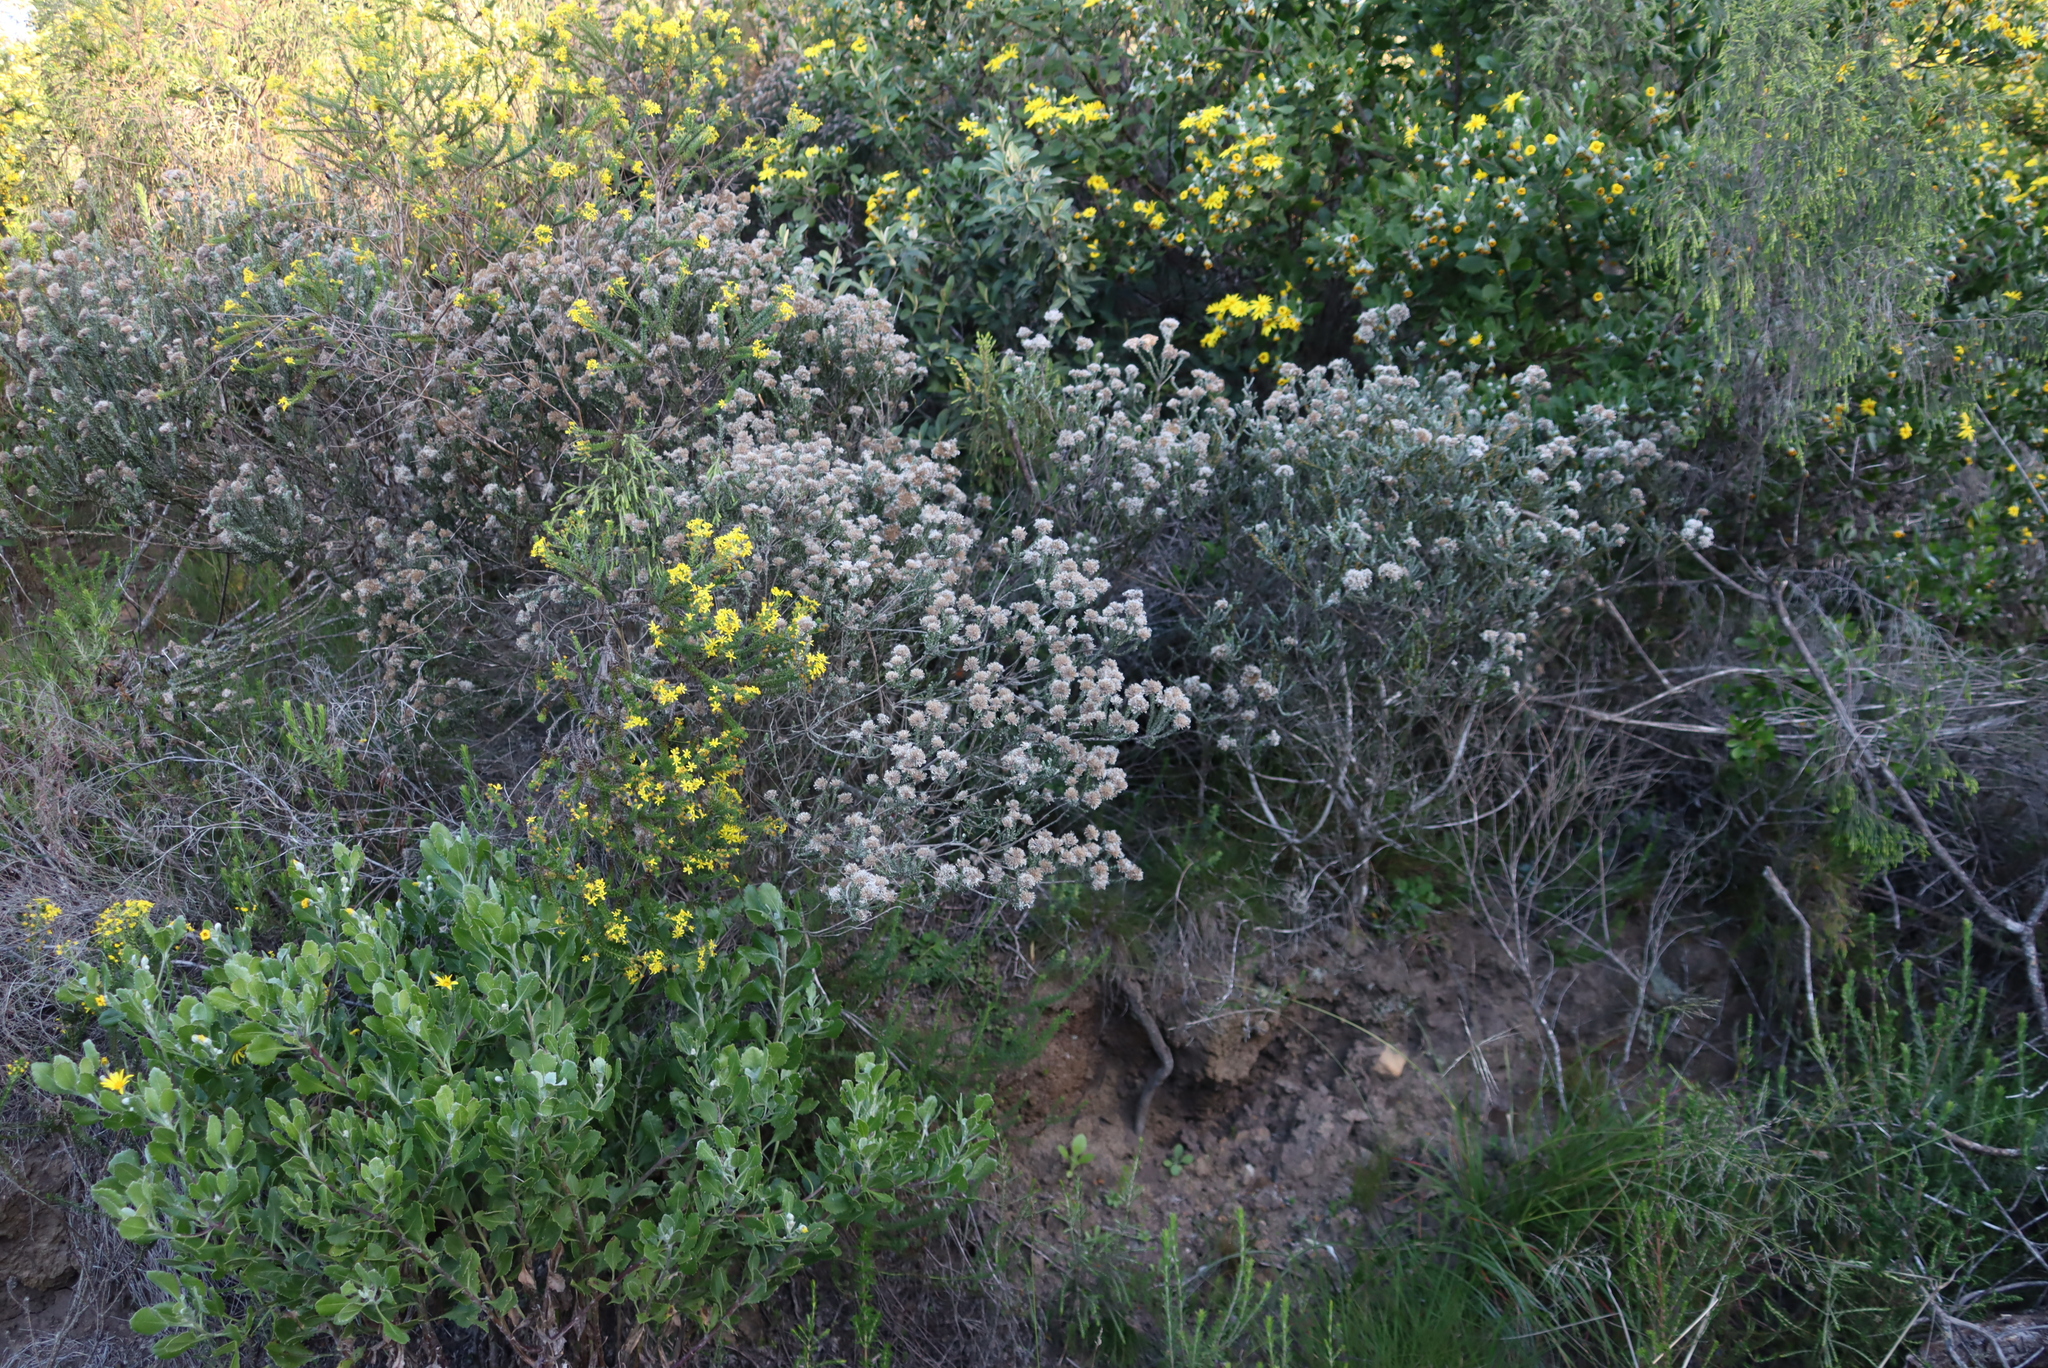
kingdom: Plantae
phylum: Tracheophyta
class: Magnoliopsida
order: Asterales
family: Asteraceae
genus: Metalasia
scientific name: Metalasia pungens
